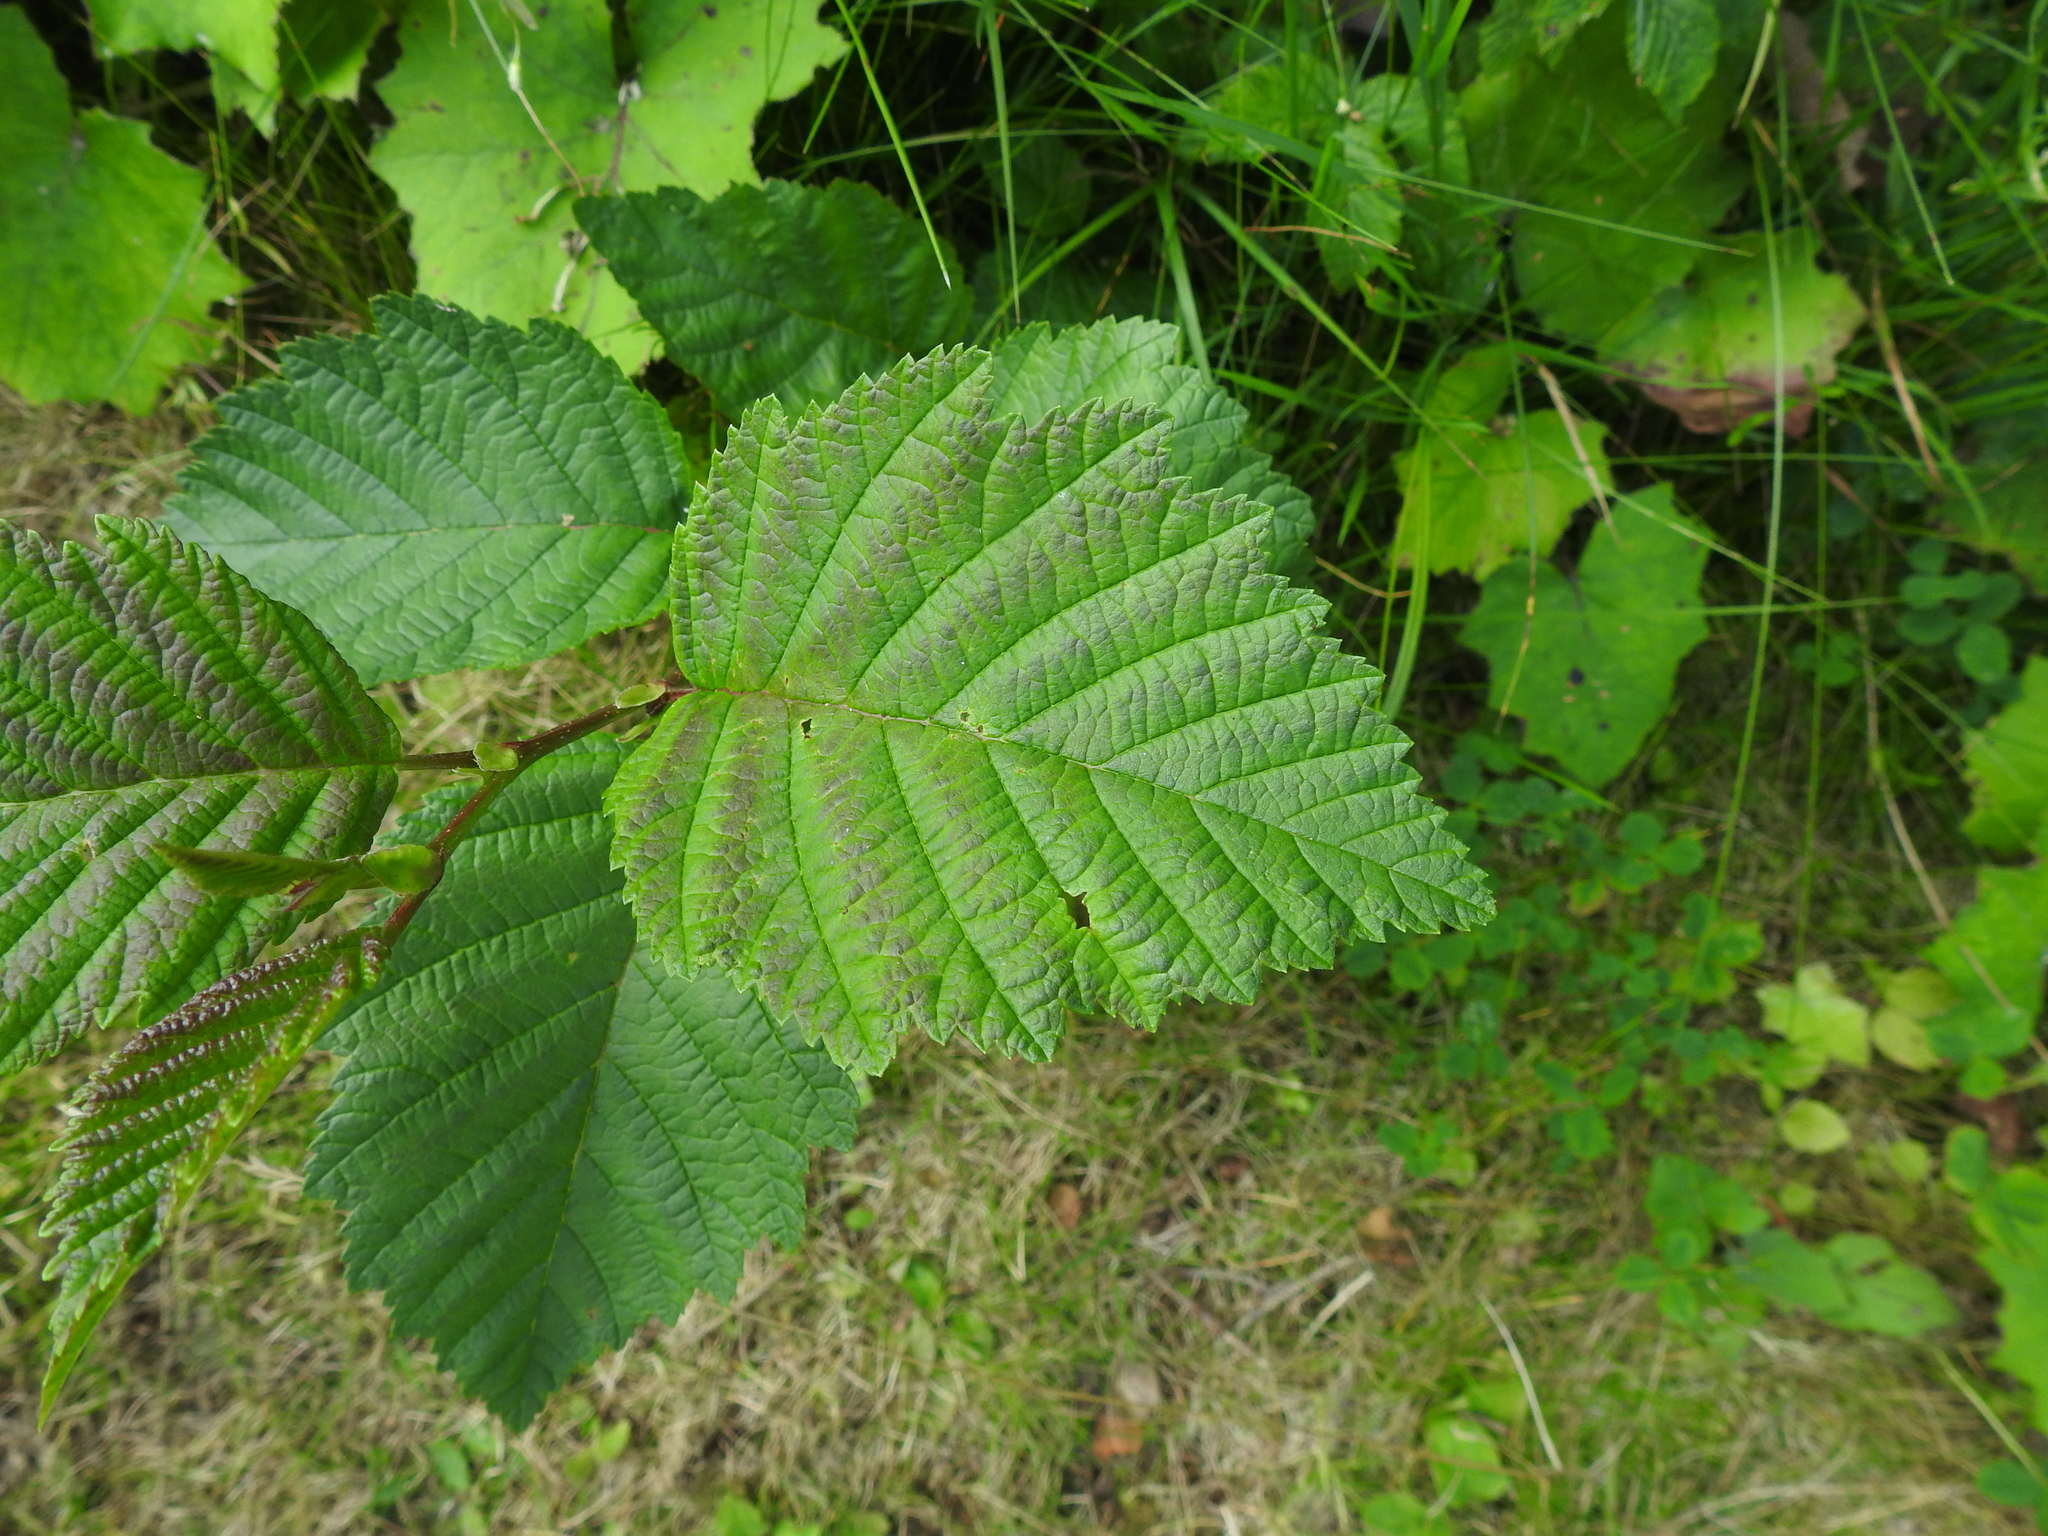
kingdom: Plantae
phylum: Tracheophyta
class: Magnoliopsida
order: Fagales
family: Betulaceae
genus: Alnus
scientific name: Alnus incana
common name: Grey alder
